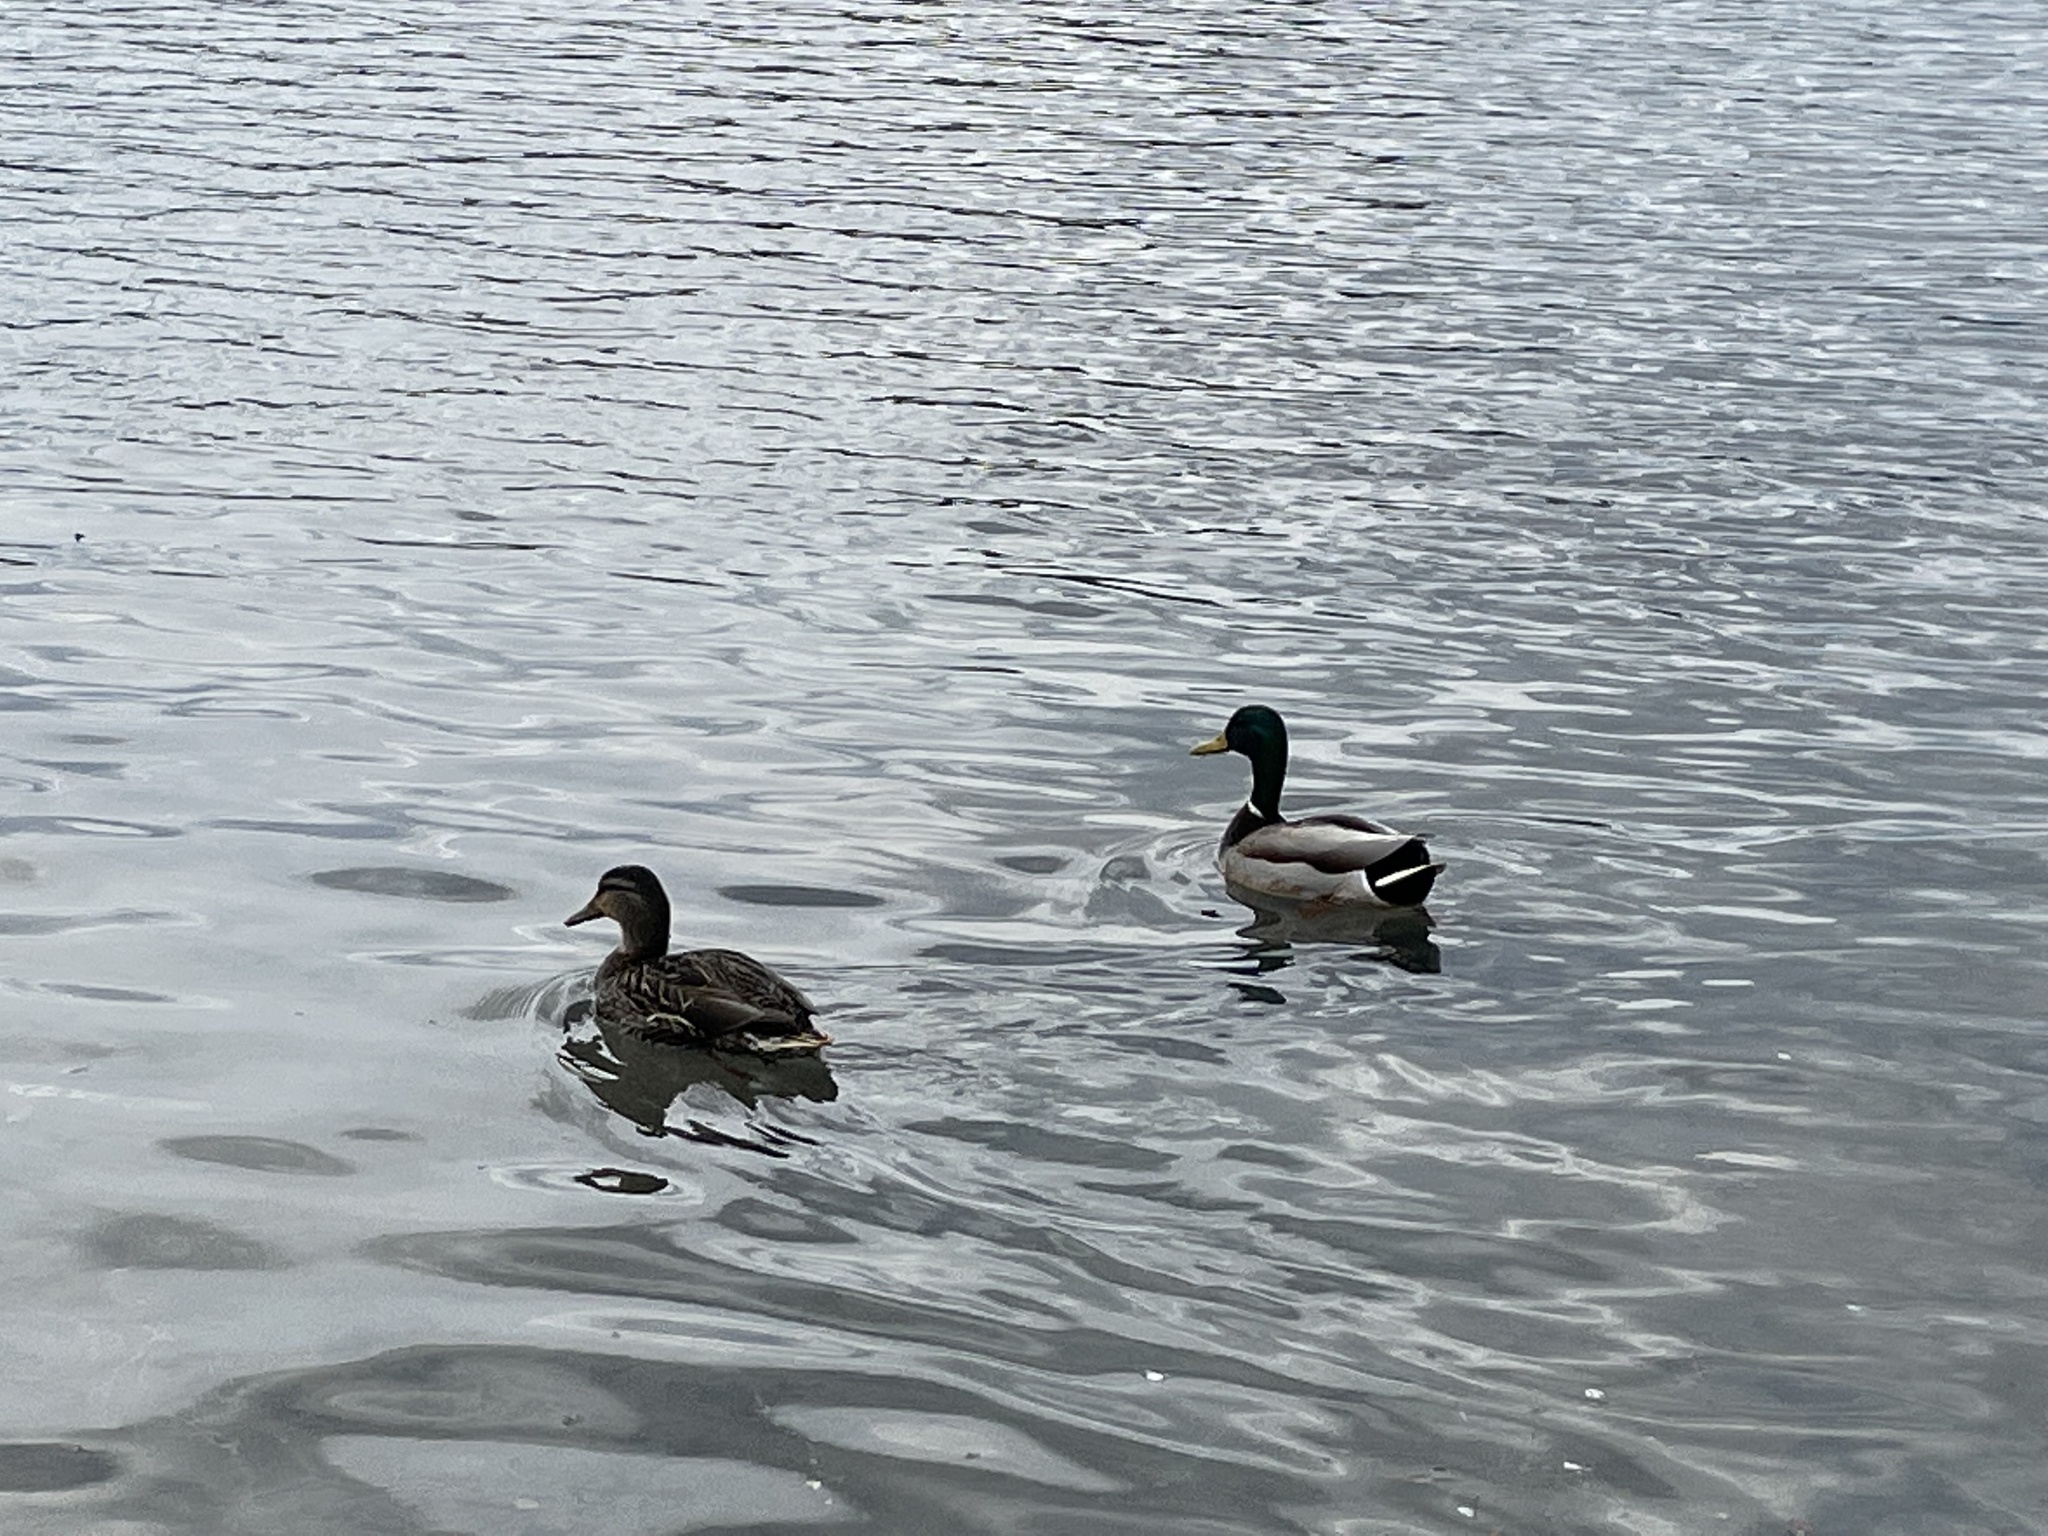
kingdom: Animalia
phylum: Chordata
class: Aves
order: Anseriformes
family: Anatidae
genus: Anas
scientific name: Anas platyrhynchos
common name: Mallard
